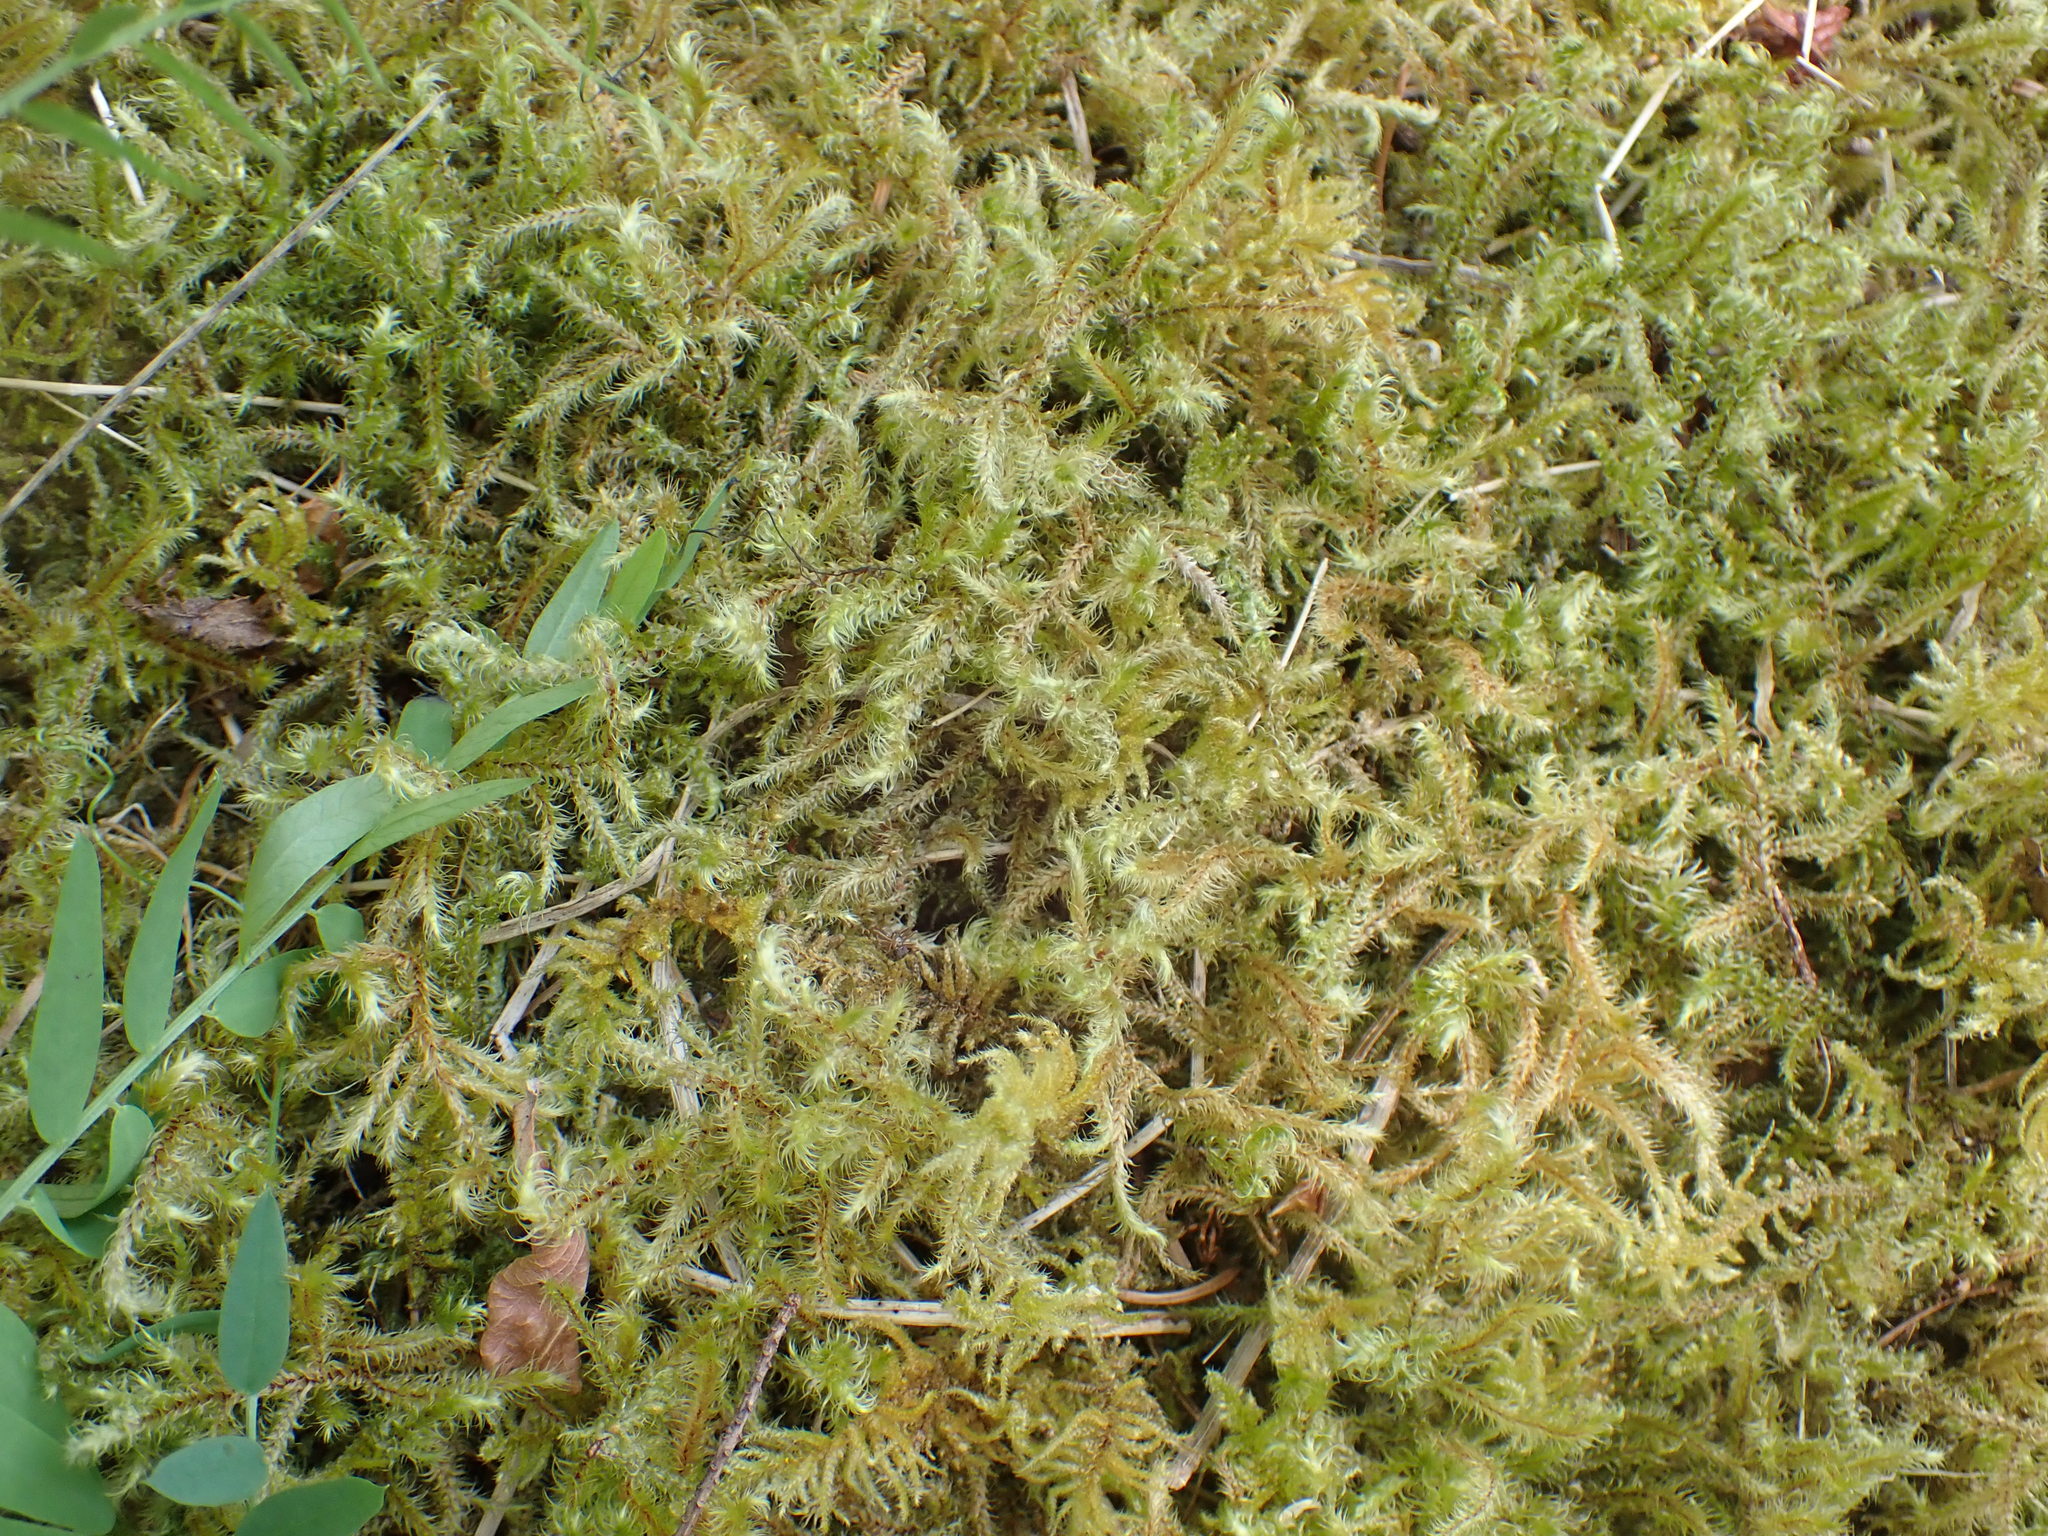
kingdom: Plantae
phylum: Bryophyta
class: Bryopsida
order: Hypnales
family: Hylocomiaceae
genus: Rhytidiadelphus
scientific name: Rhytidiadelphus loreus
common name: Lanky moss
